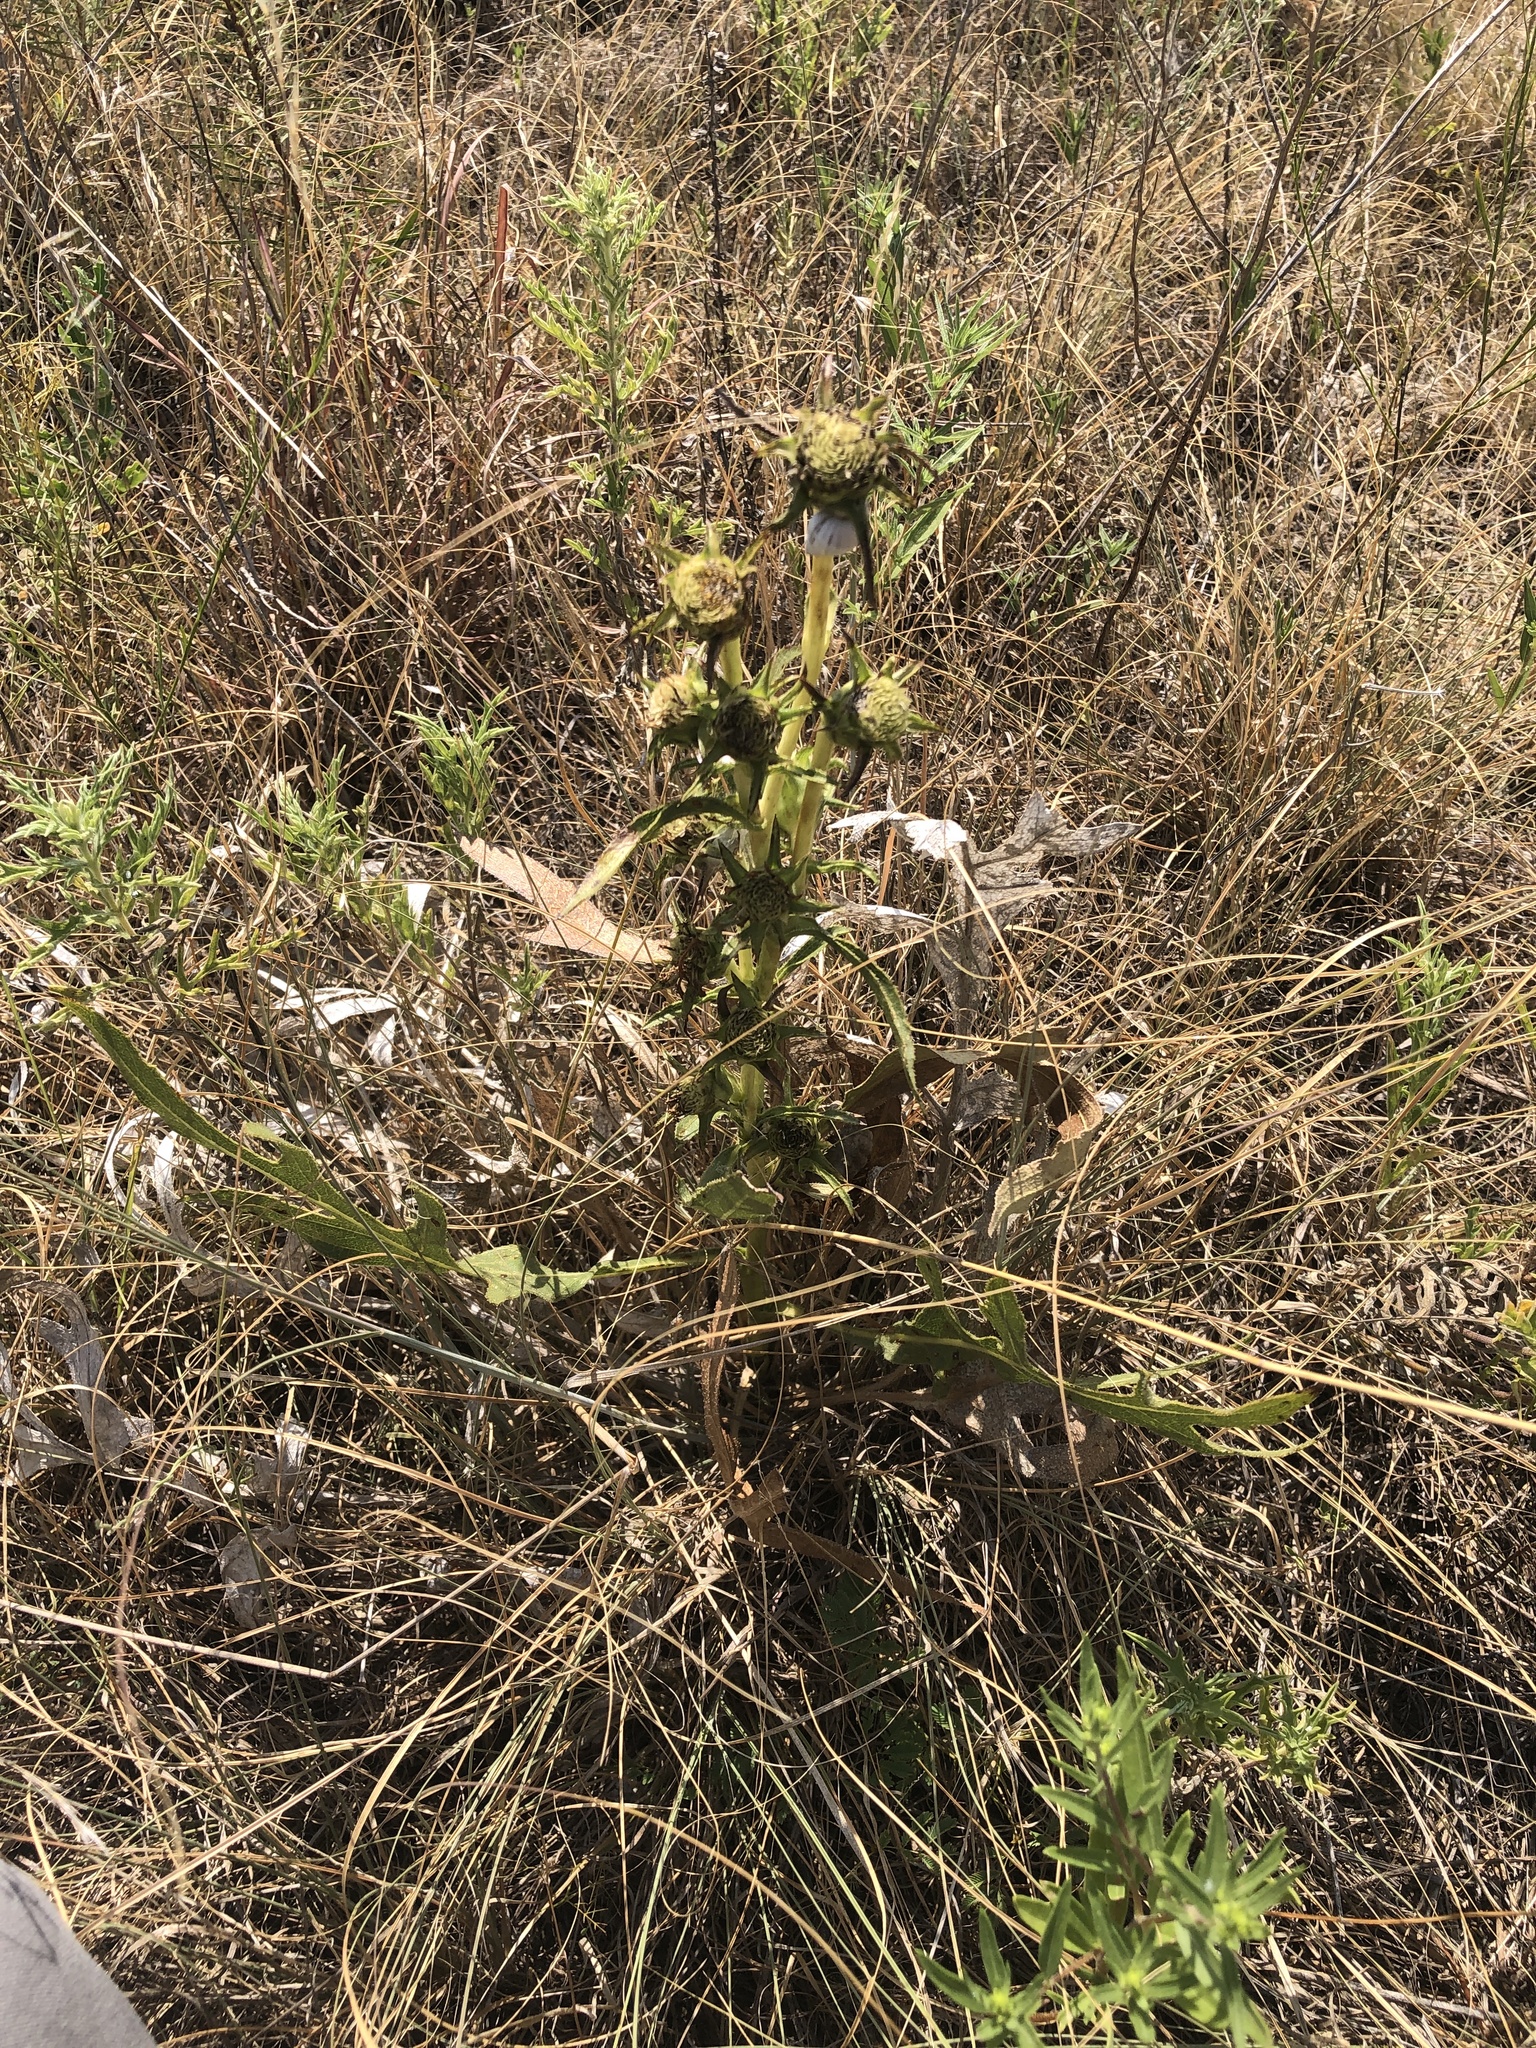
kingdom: Plantae
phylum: Tracheophyta
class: Magnoliopsida
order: Asterales
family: Asteraceae
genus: Silphium
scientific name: Silphium albiflorum
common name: White rosinweed
